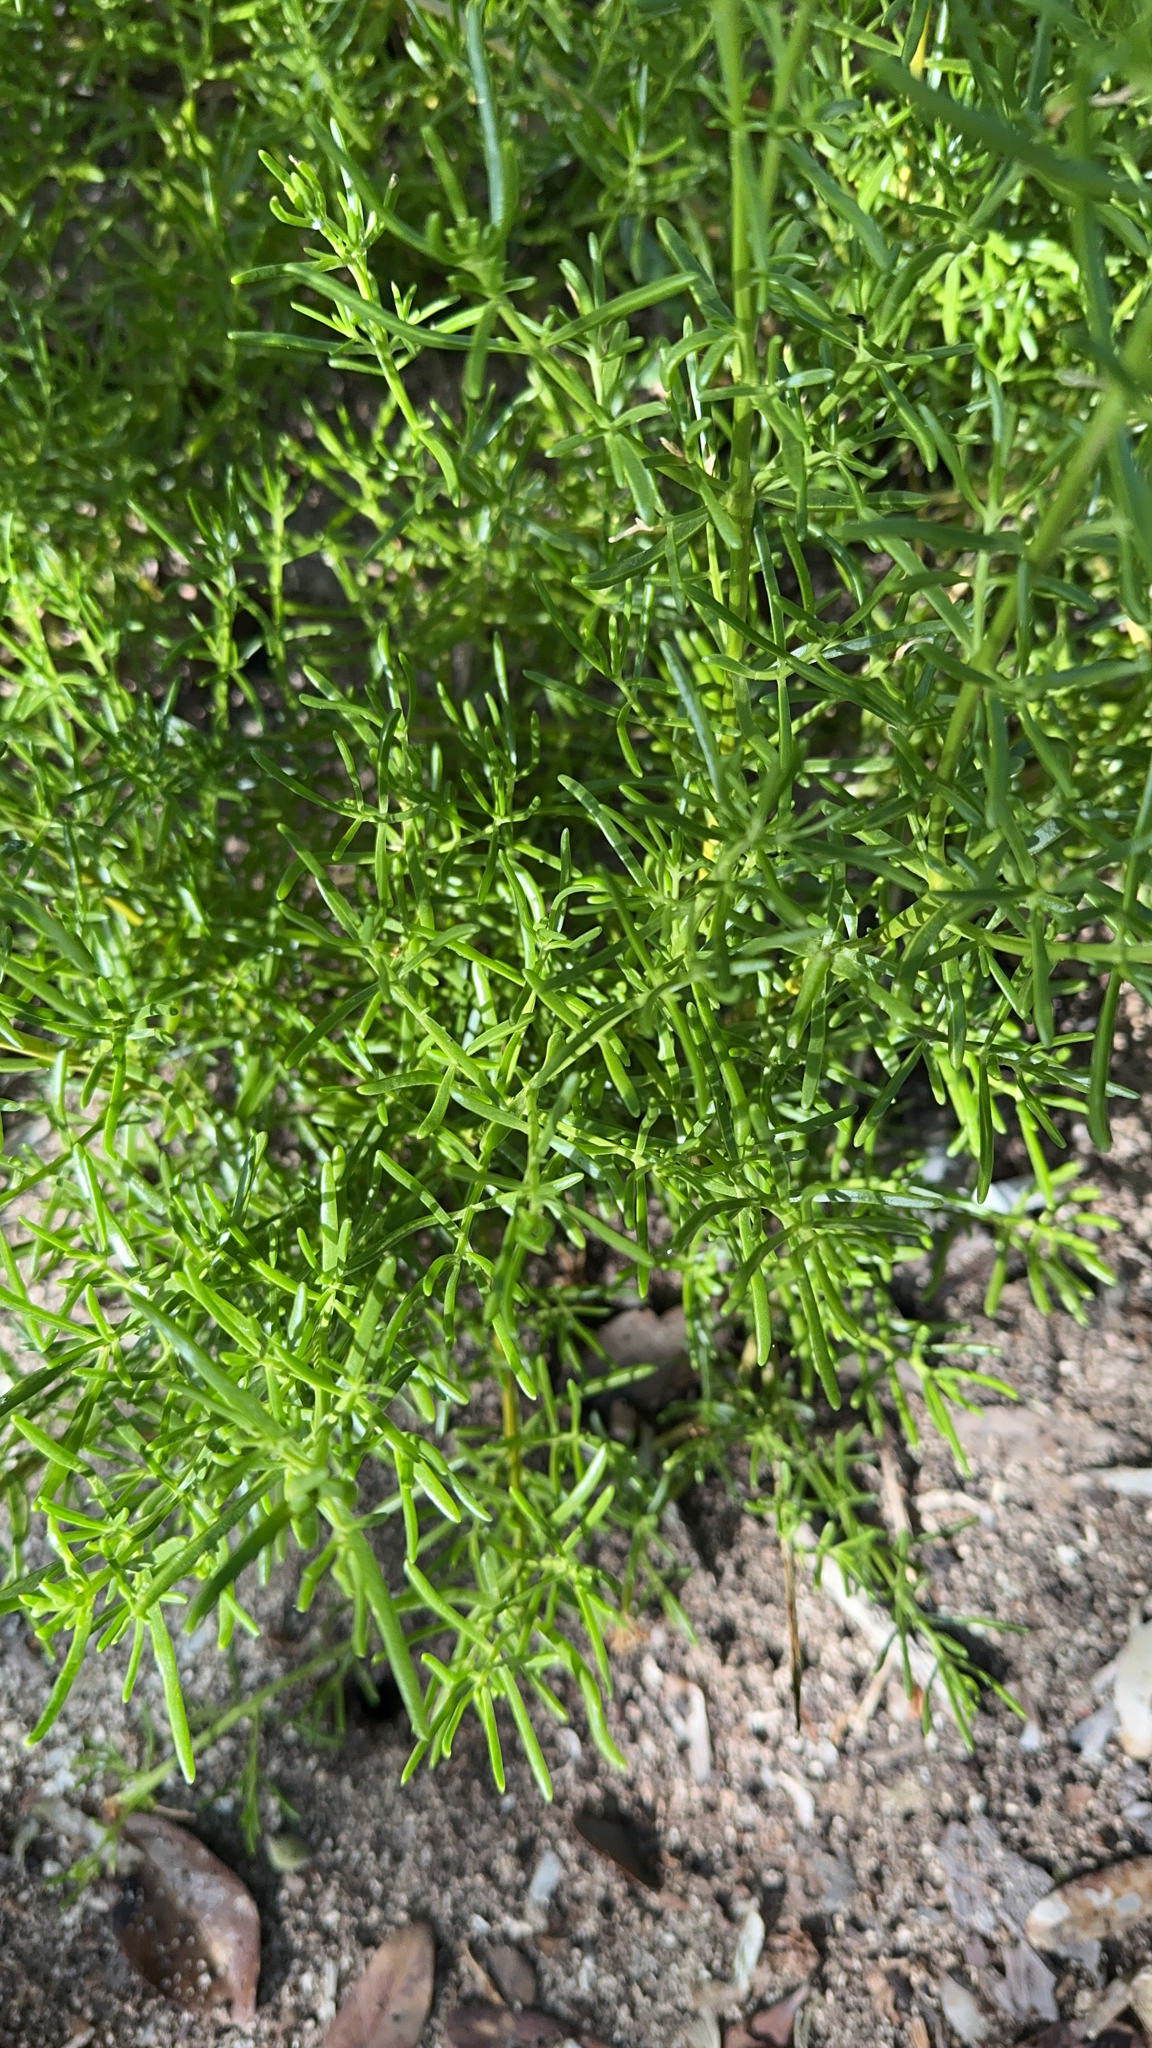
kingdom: Plantae
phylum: Tracheophyta
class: Magnoliopsida
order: Brassicales
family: Bataceae
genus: Batis
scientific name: Batis maritima
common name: Turtleweed
